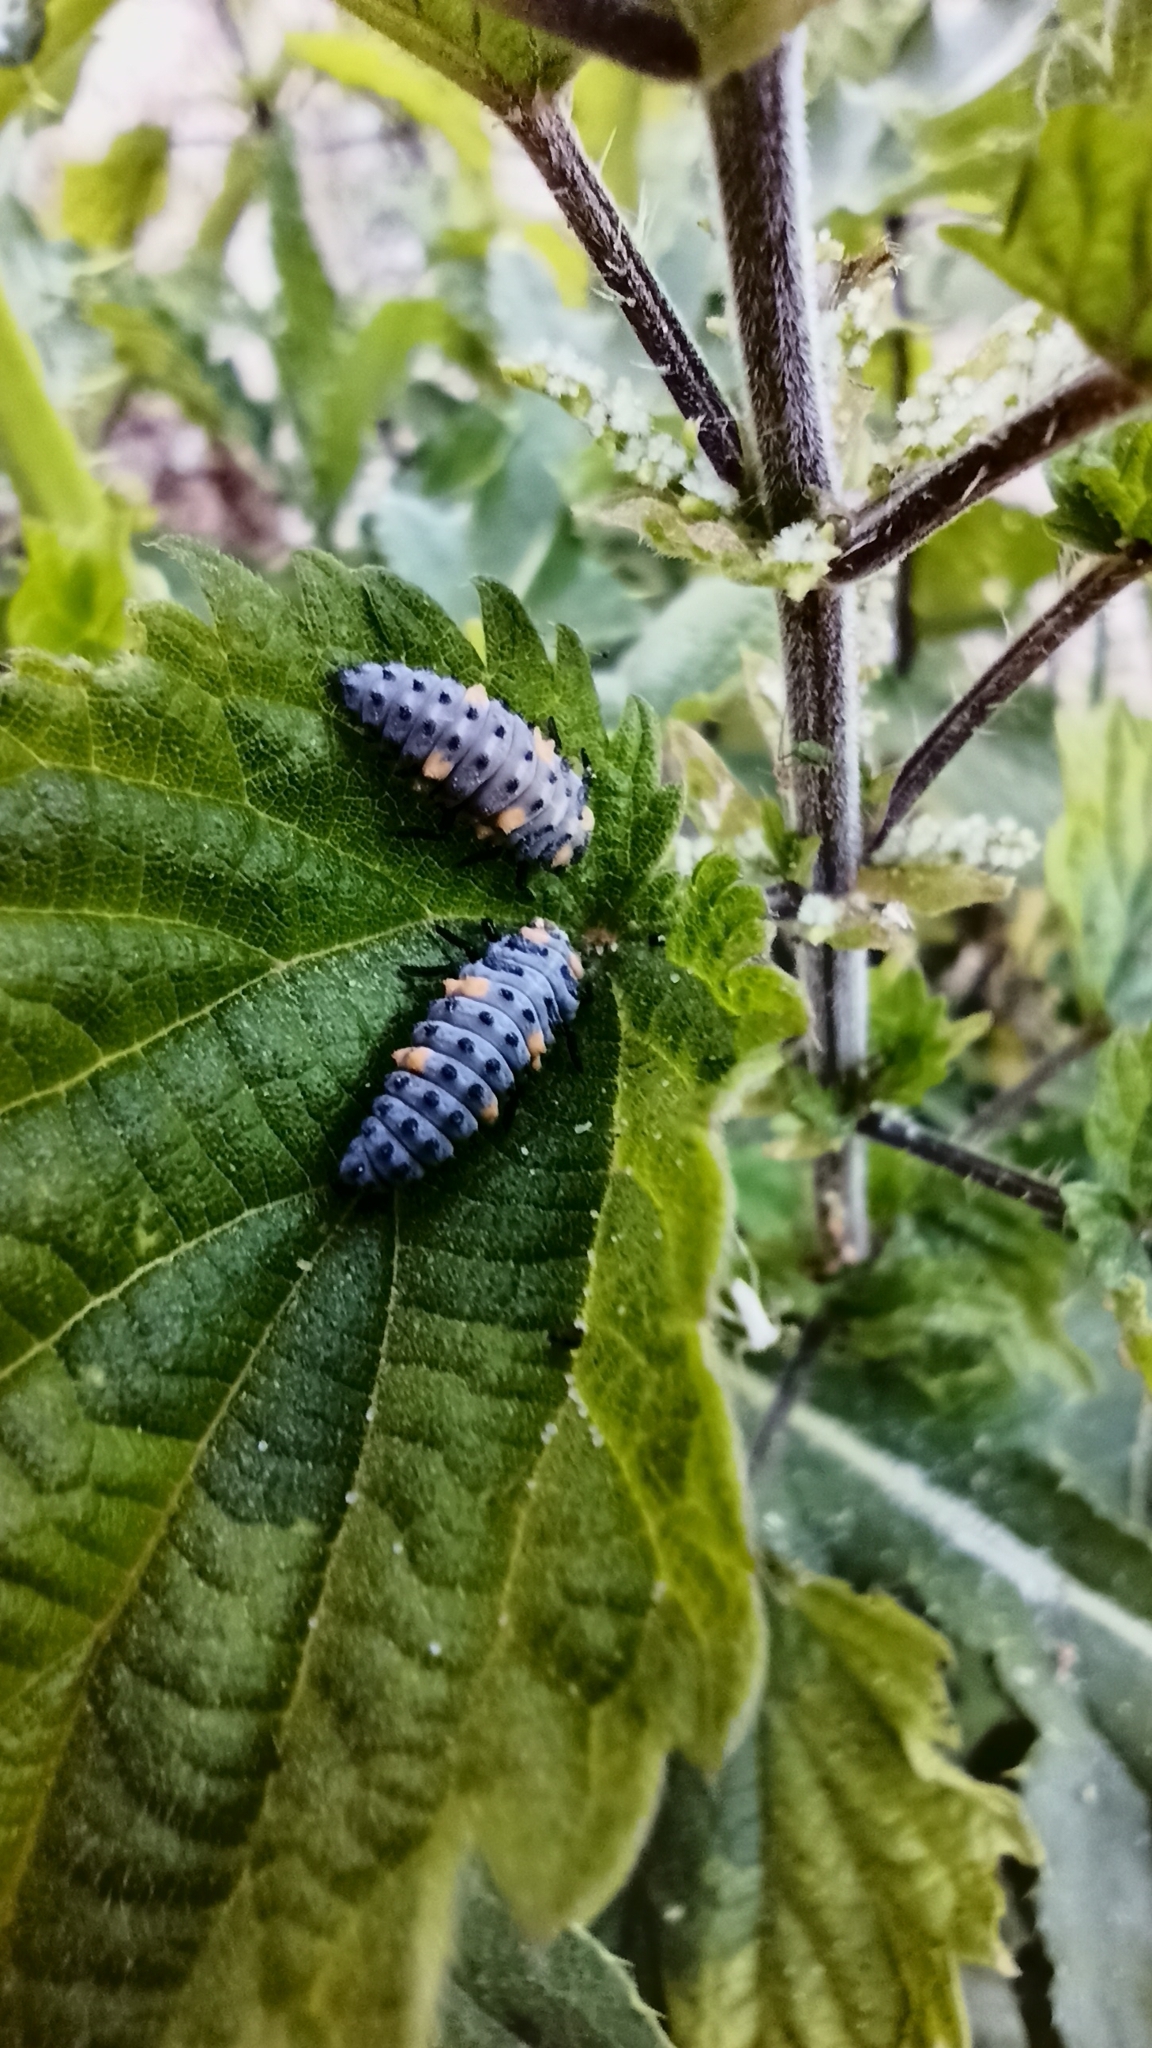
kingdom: Animalia
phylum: Arthropoda
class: Insecta
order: Coleoptera
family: Coccinellidae
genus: Coccinella
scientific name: Coccinella septempunctata
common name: Sevenspotted lady beetle
